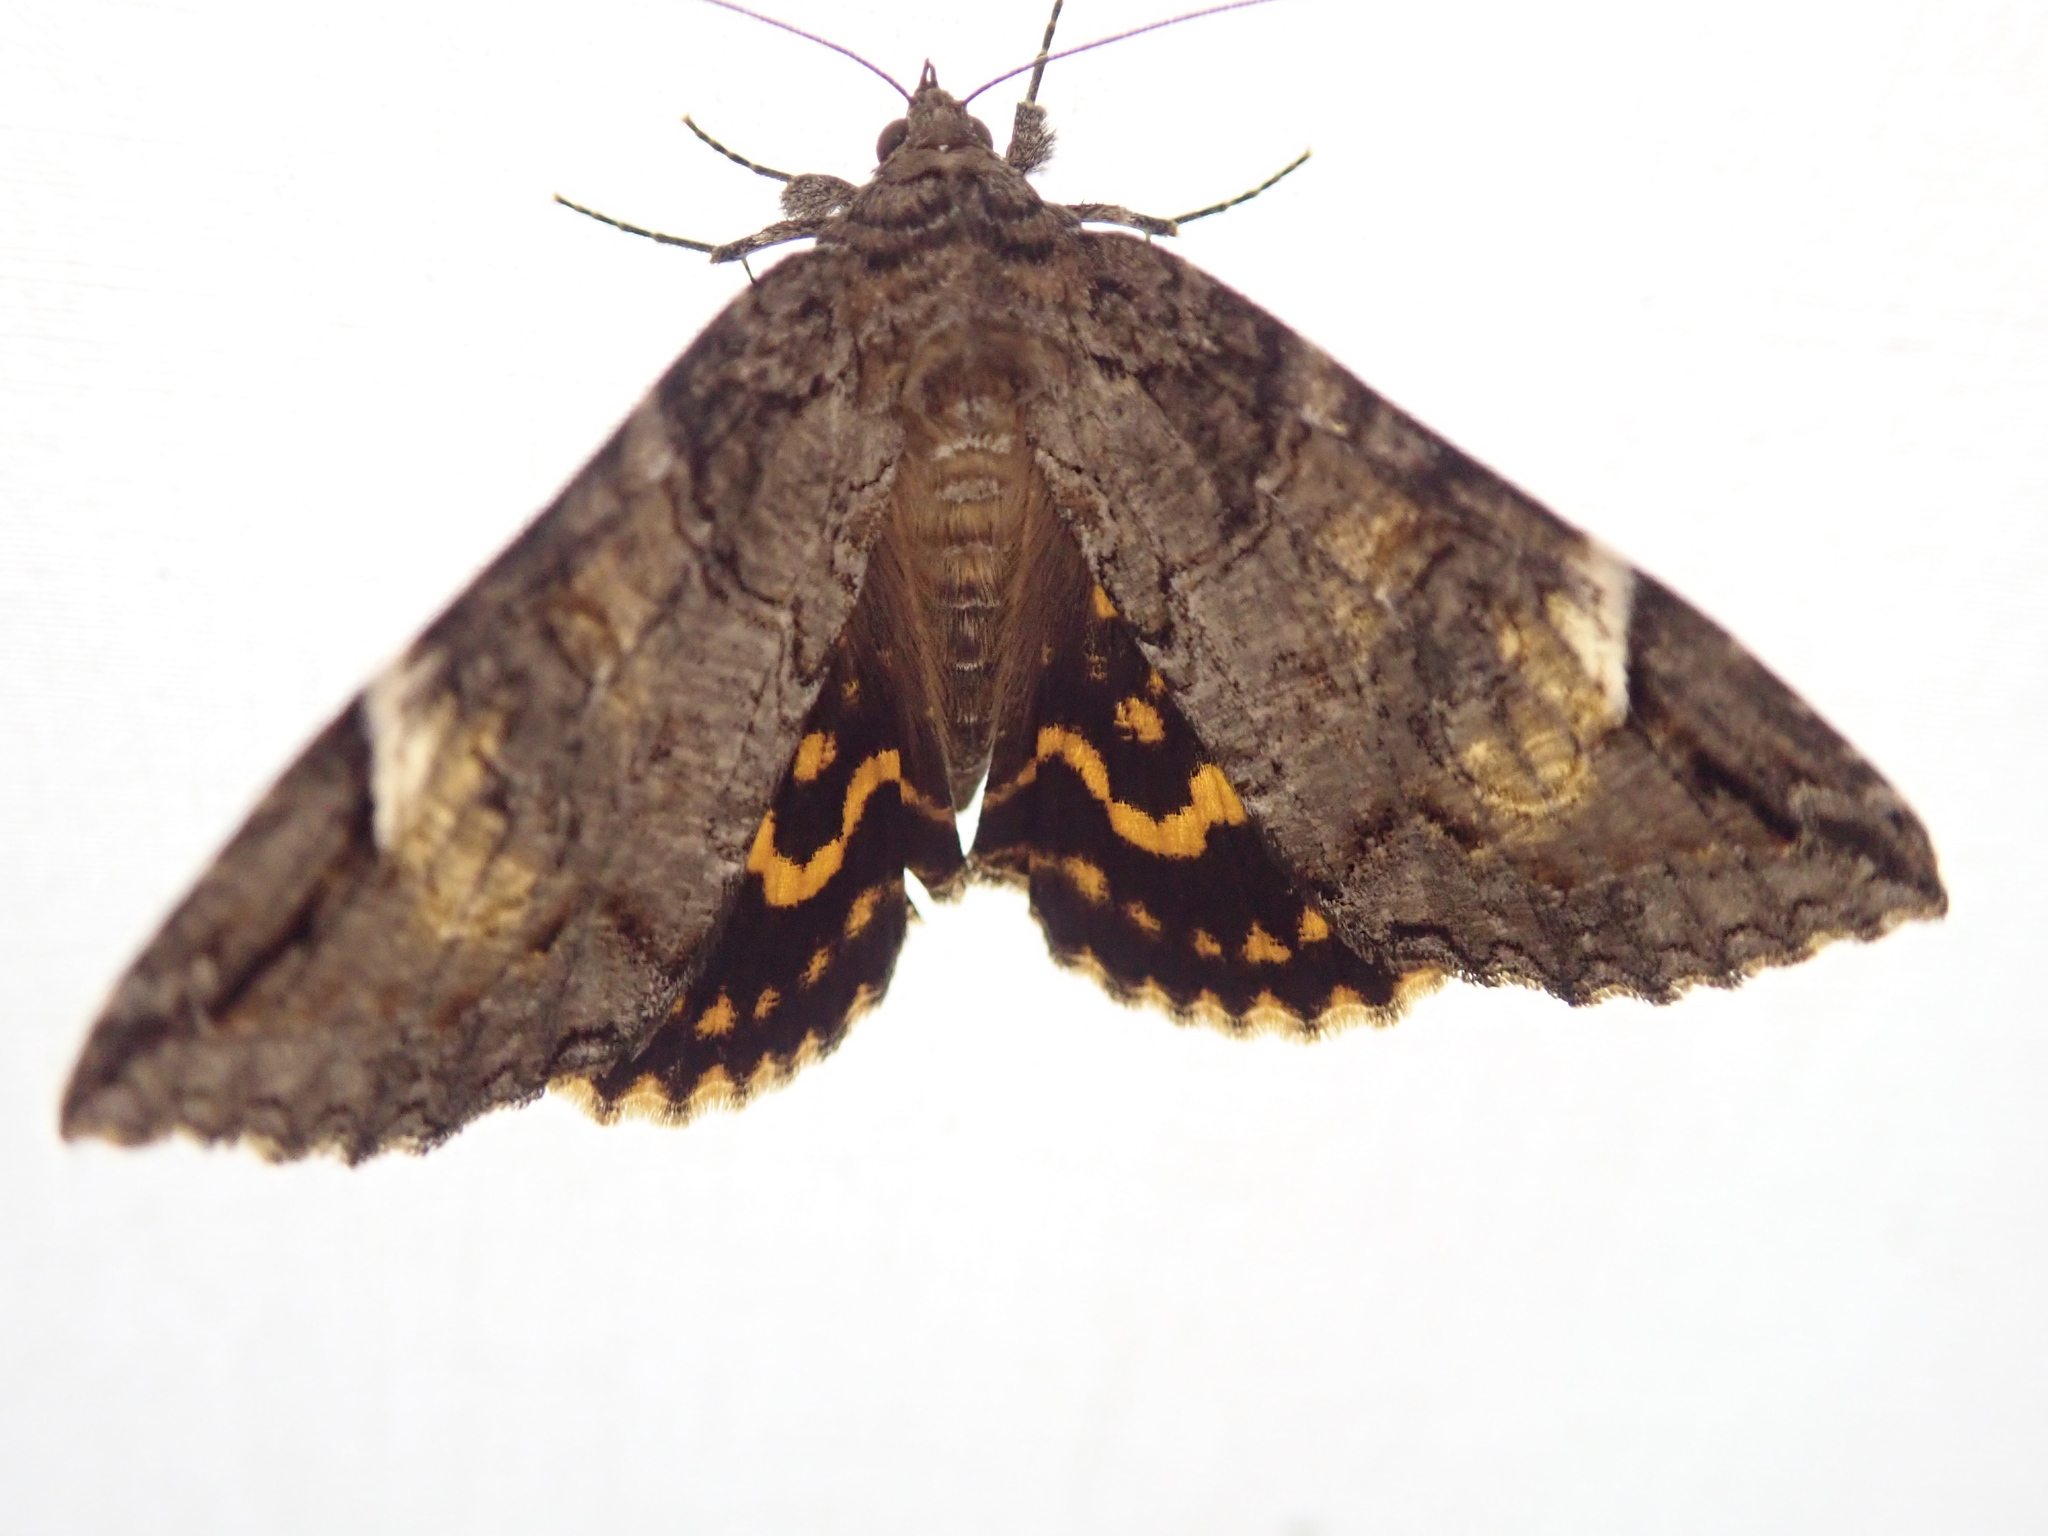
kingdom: Animalia
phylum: Arthropoda
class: Insecta
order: Lepidoptera
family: Erebidae
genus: Euparthenos
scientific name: Euparthenos nubilis
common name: Locust underwing
